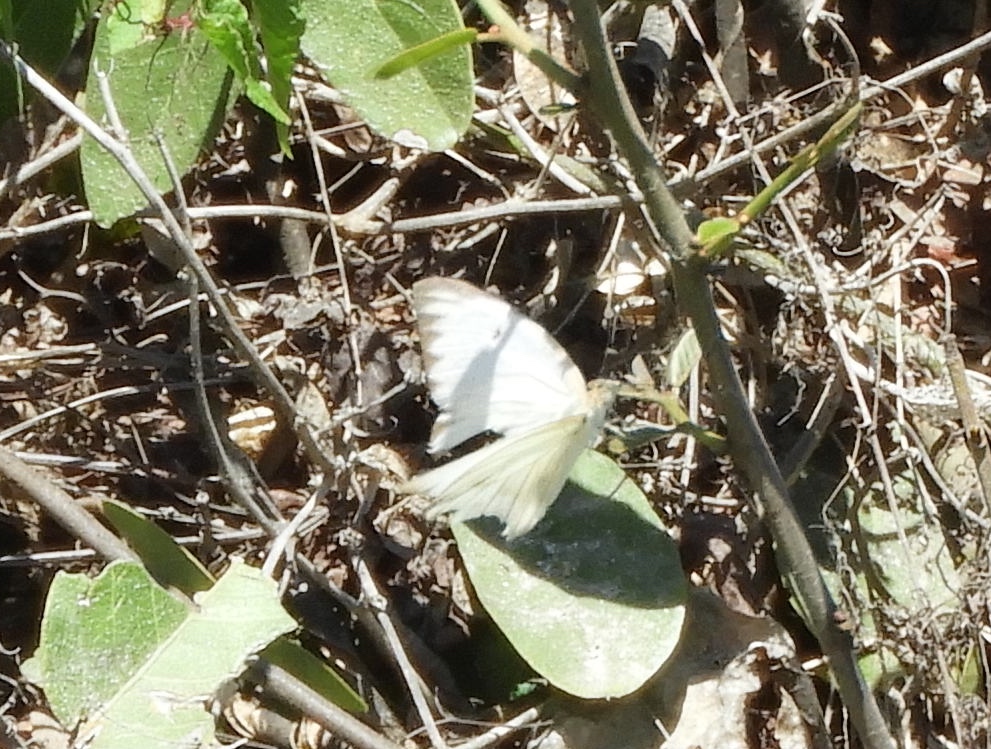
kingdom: Animalia
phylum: Arthropoda
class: Insecta
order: Lepidoptera
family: Pieridae
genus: Ascia
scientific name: Ascia monuste
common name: Great southern white
